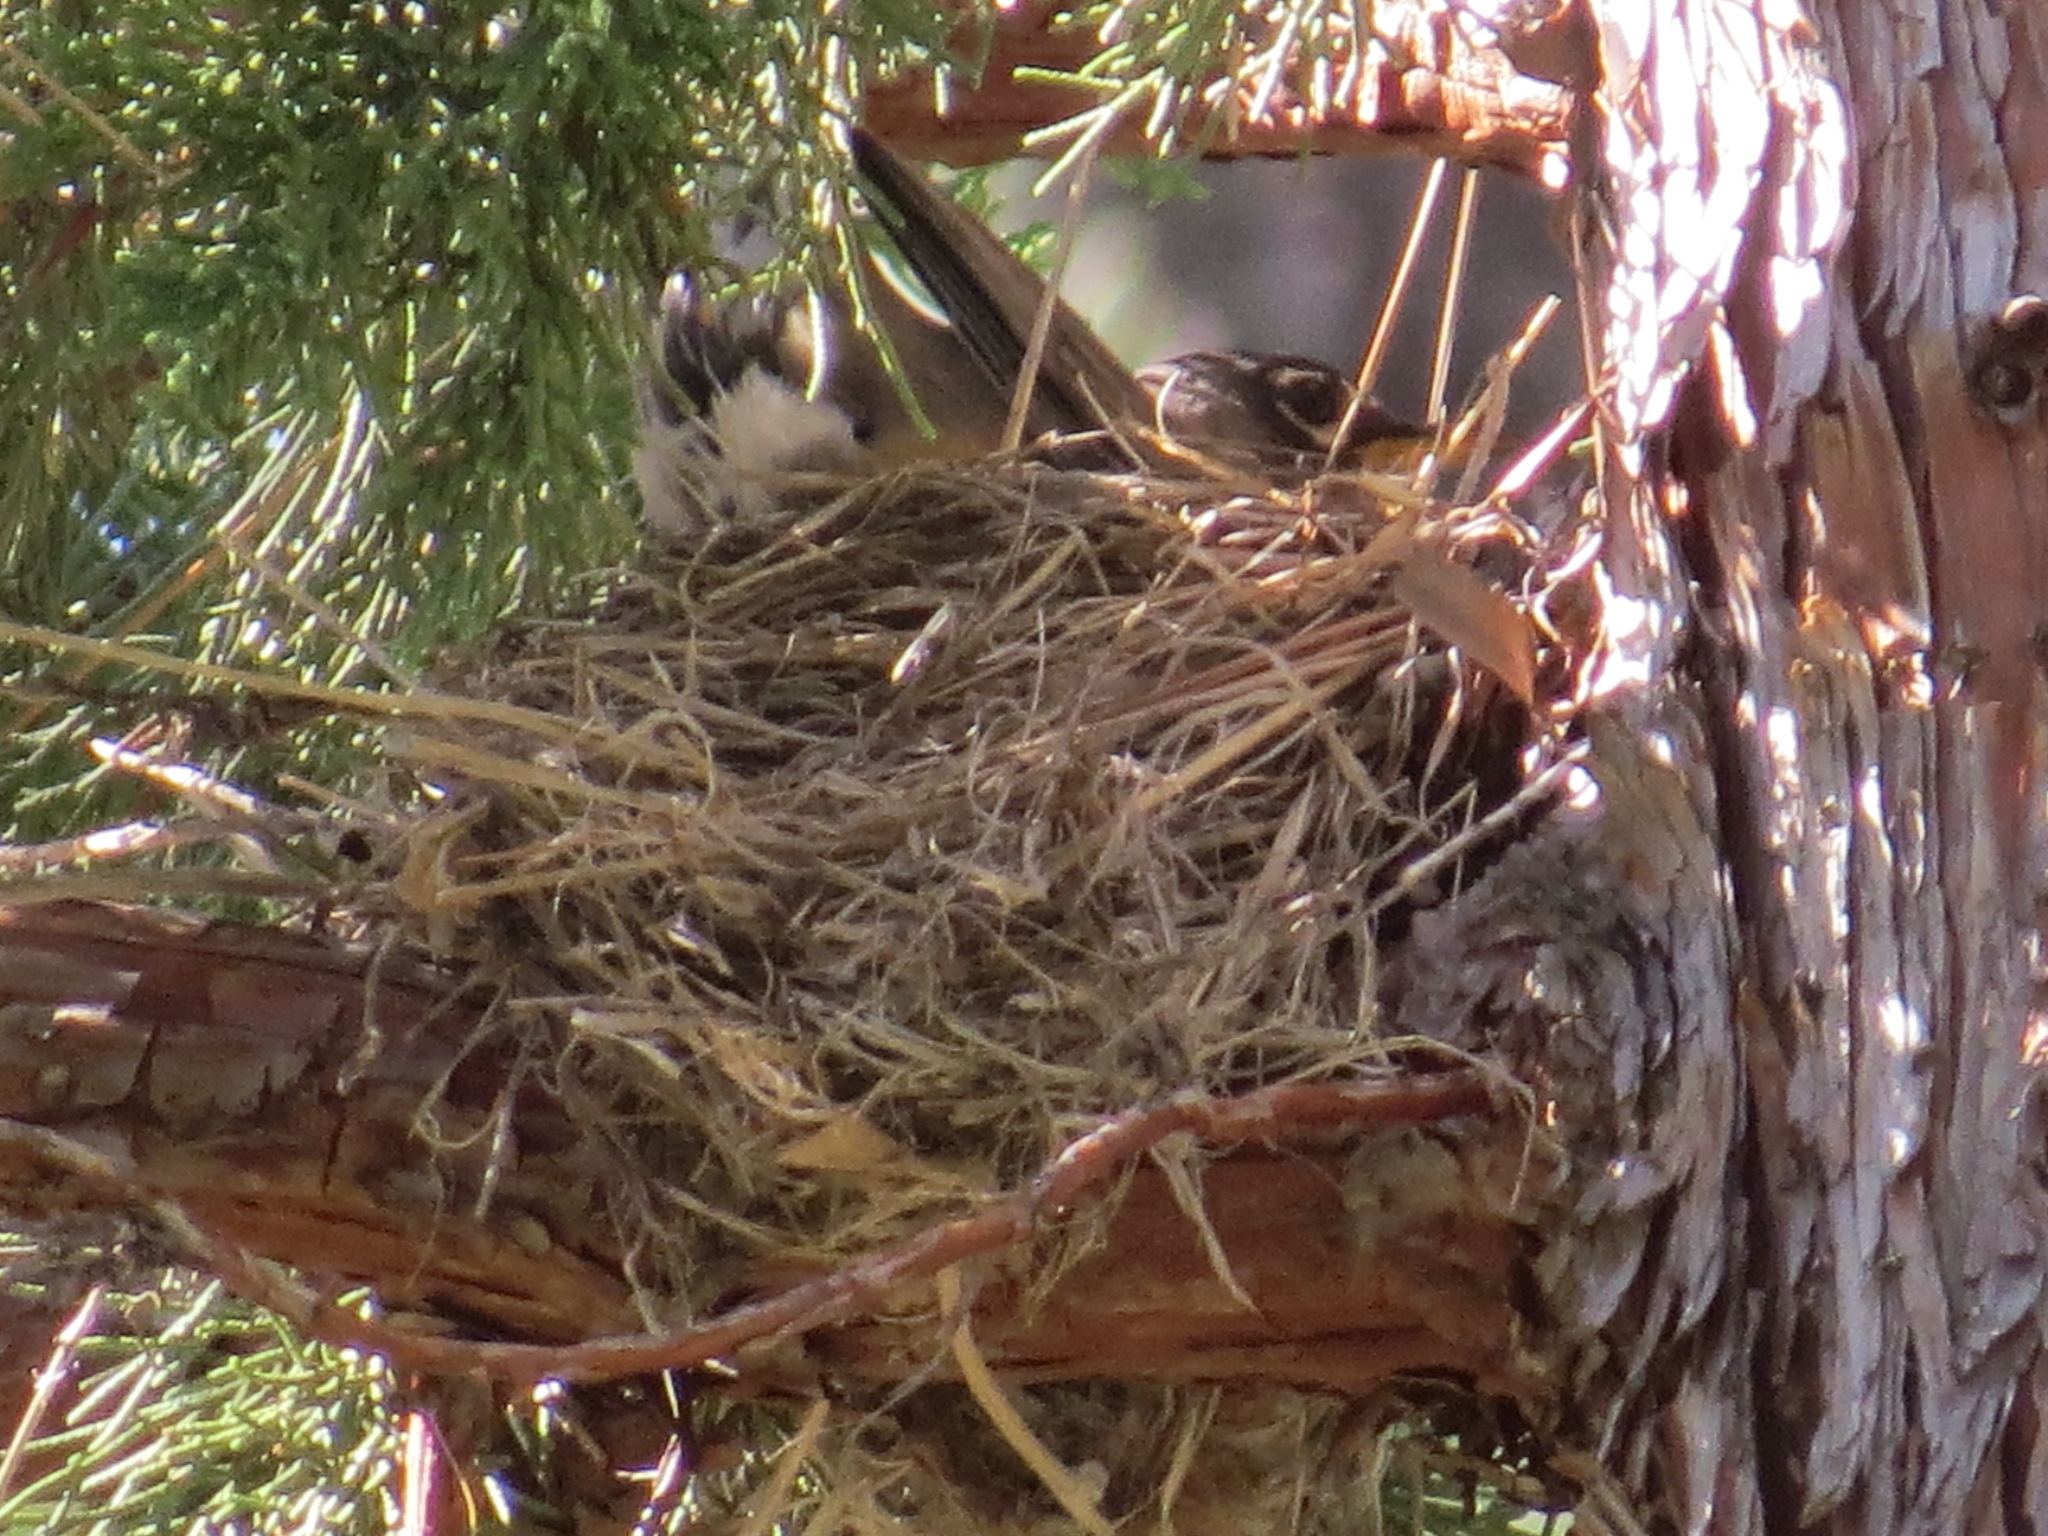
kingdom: Animalia
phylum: Chordata
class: Aves
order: Passeriformes
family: Turdidae
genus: Turdus
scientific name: Turdus migratorius
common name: American robin
